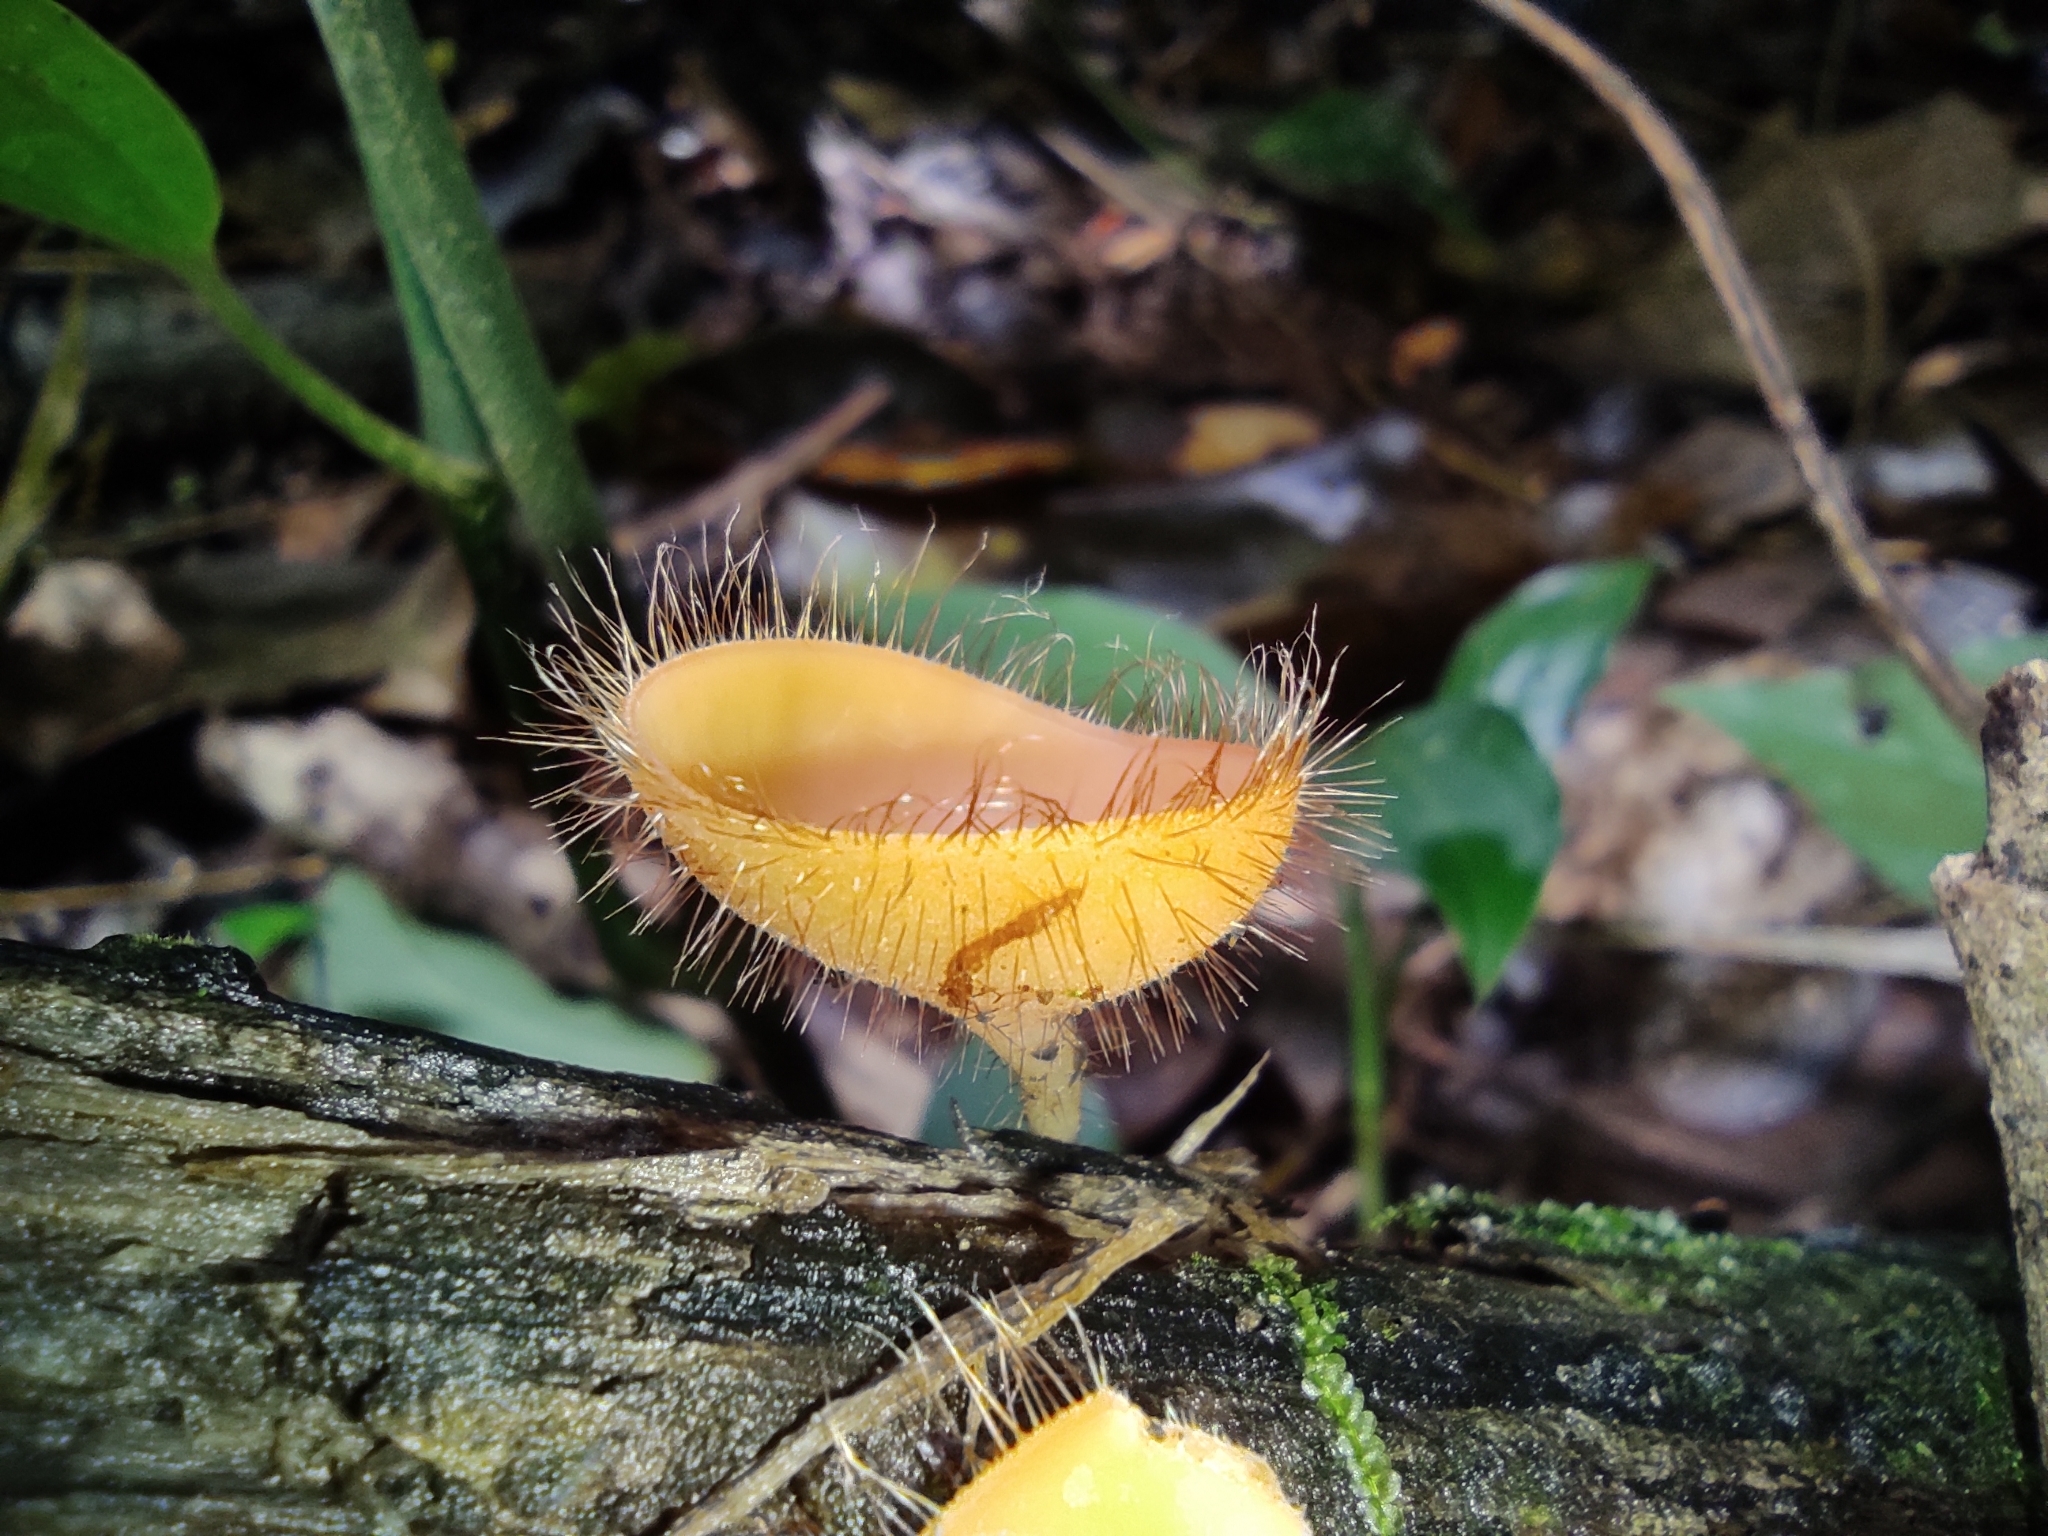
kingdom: Fungi
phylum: Ascomycota
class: Pezizomycetes
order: Pezizales
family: Sarcoscyphaceae
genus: Cookeina
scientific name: Cookeina tricholoma
